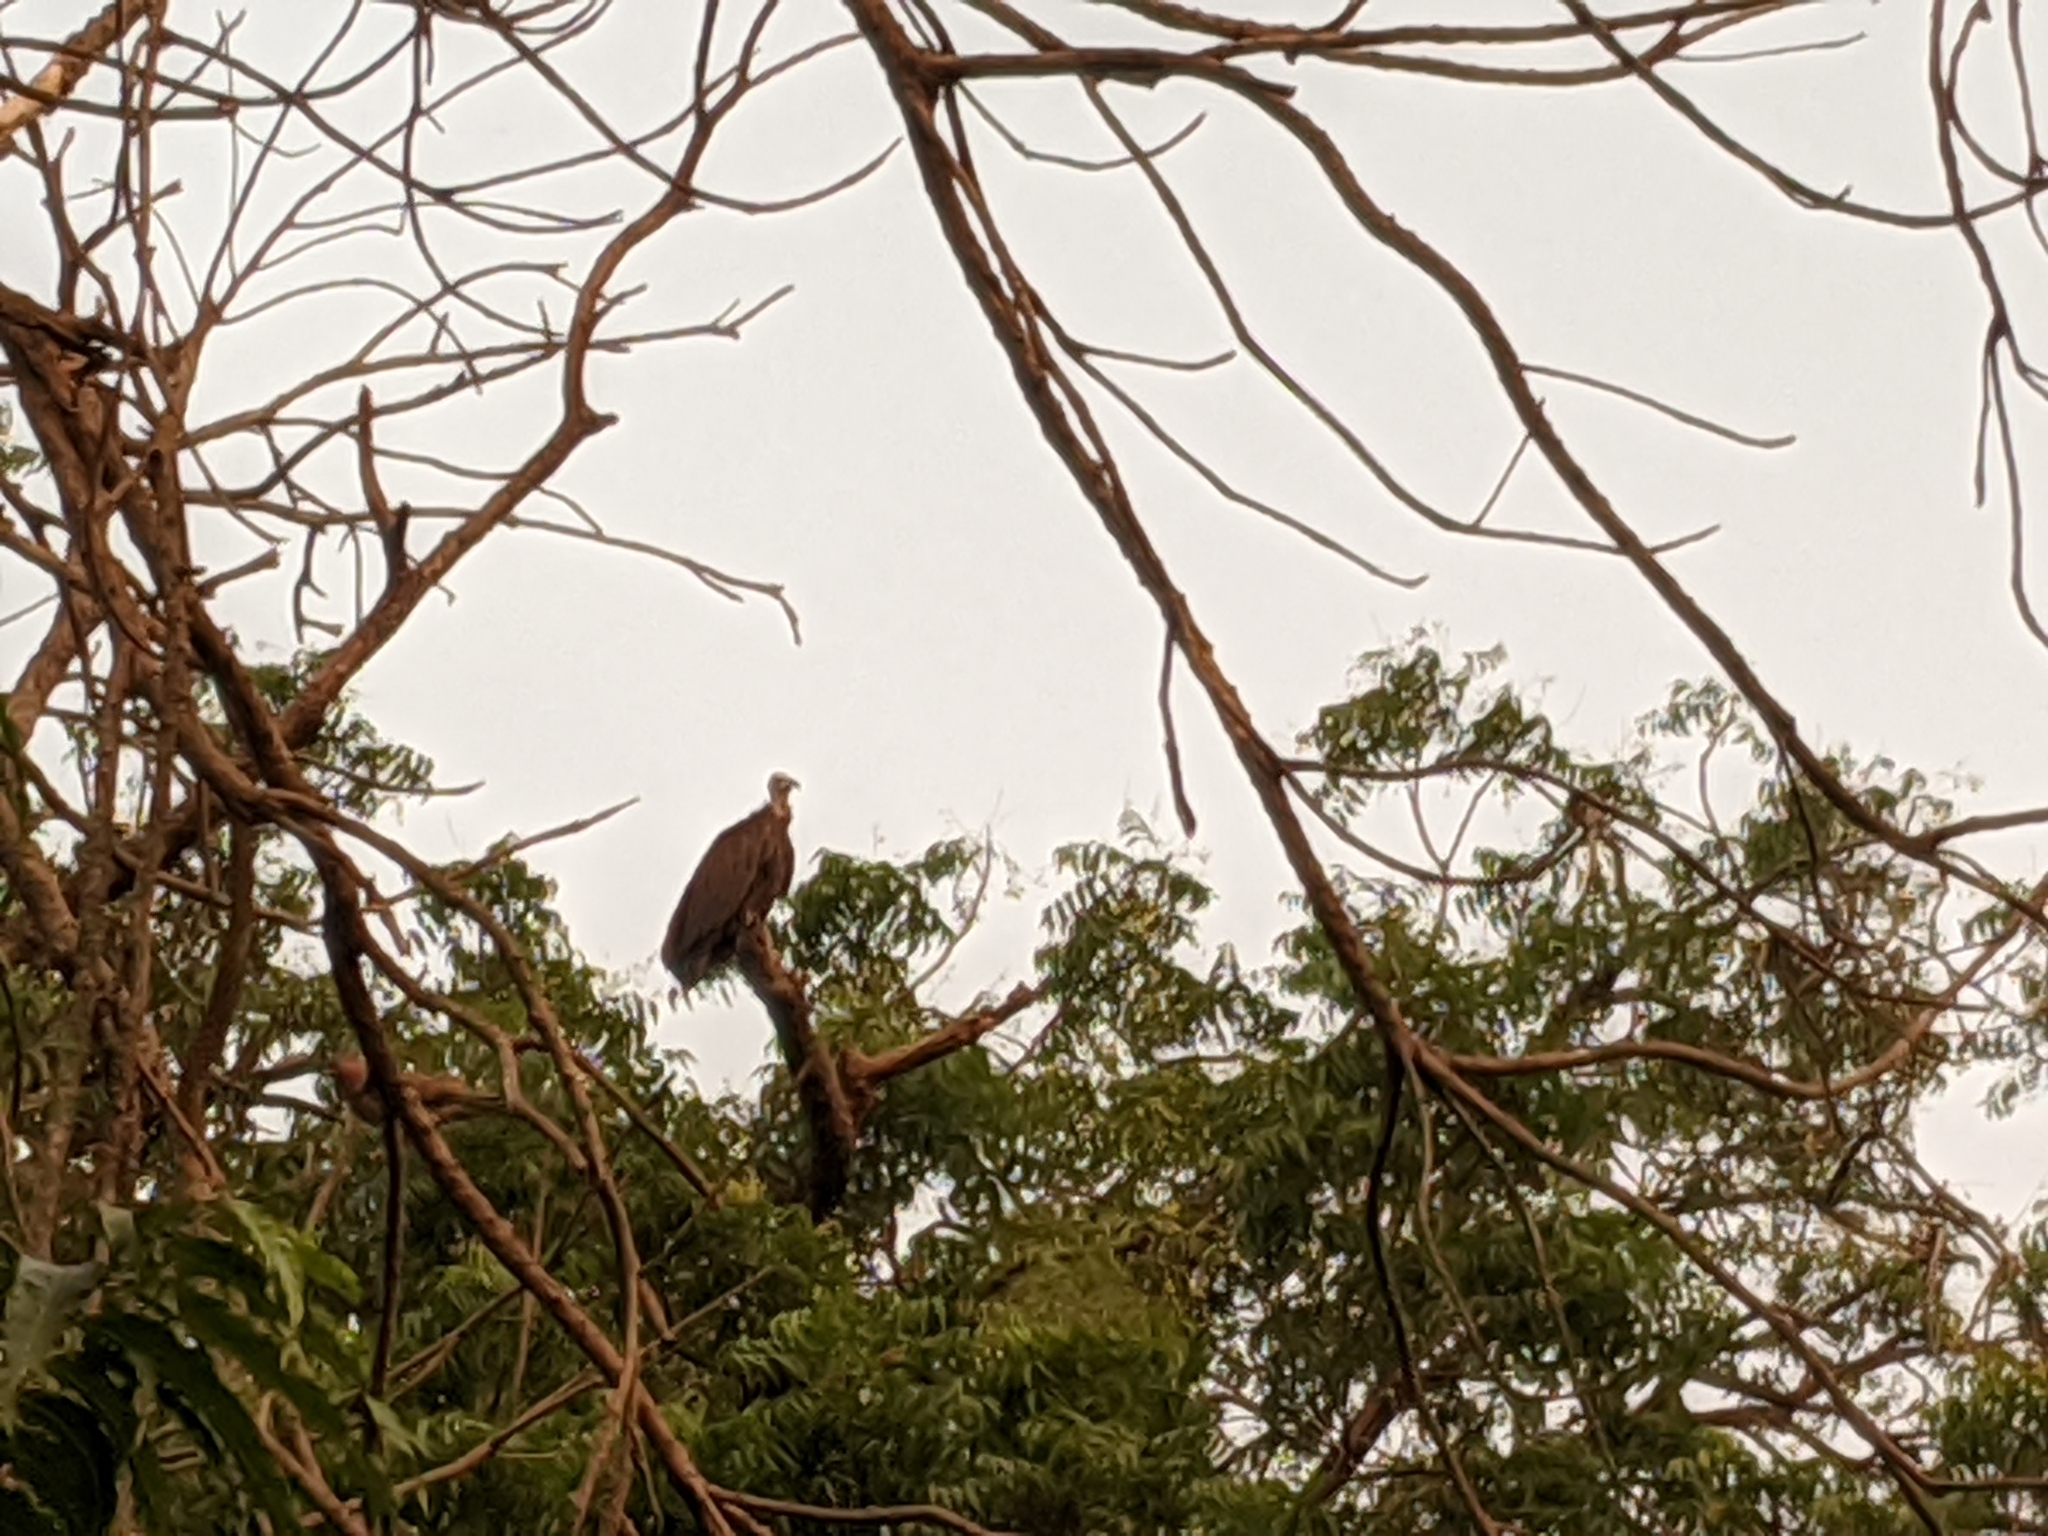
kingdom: Animalia
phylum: Chordata
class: Aves
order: Accipitriformes
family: Accipitridae
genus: Necrosyrtes
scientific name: Necrosyrtes monachus
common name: Hooded vulture
